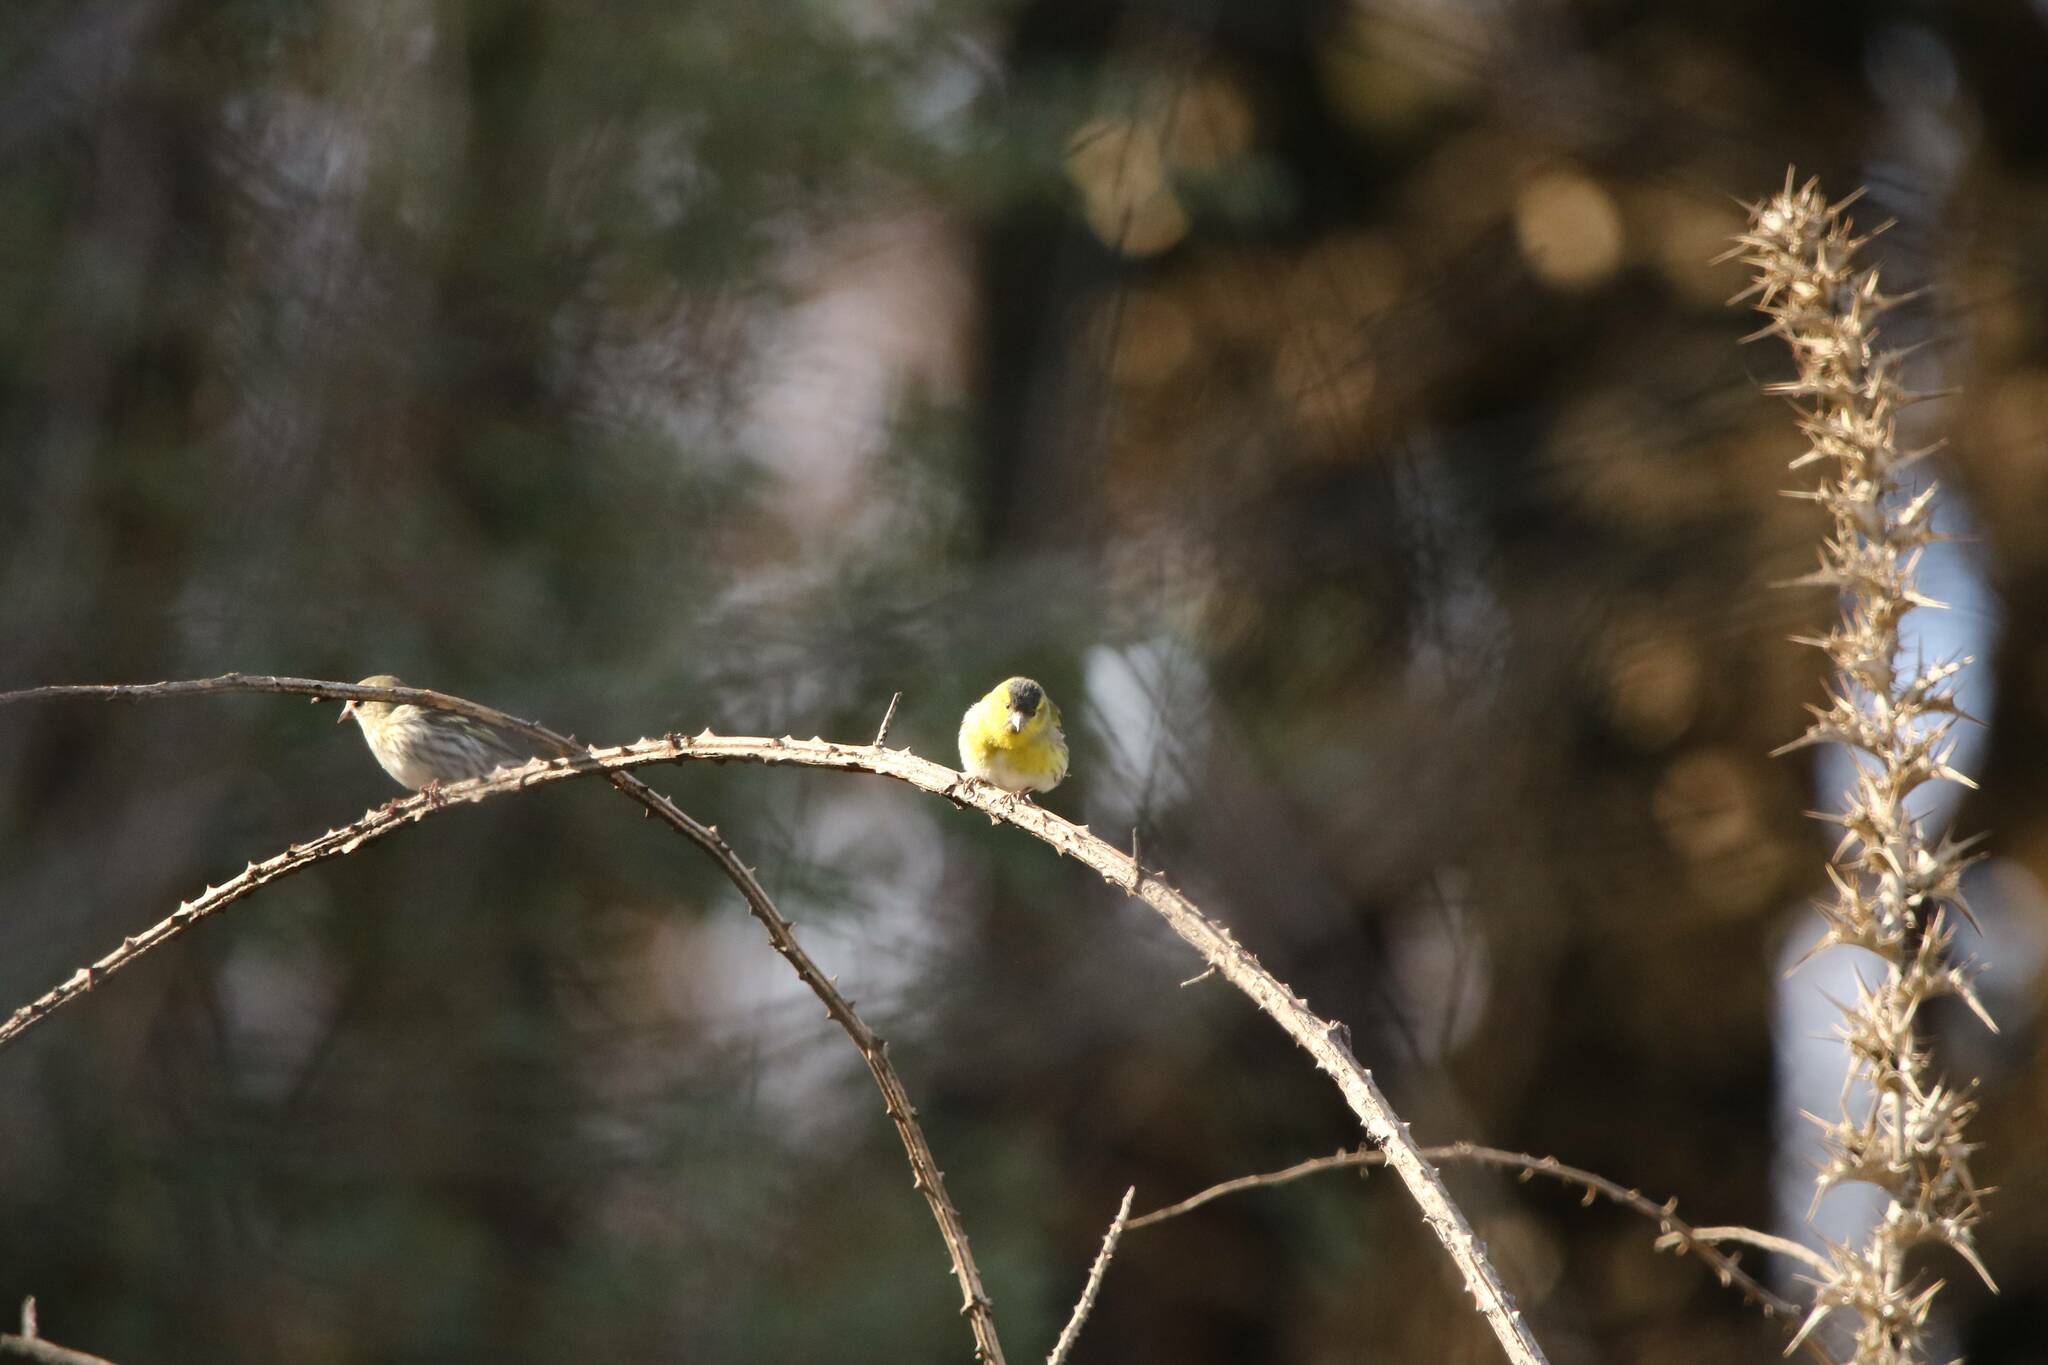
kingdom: Animalia
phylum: Chordata
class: Aves
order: Passeriformes
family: Fringillidae
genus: Spinus
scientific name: Spinus spinus
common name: Eurasian siskin
